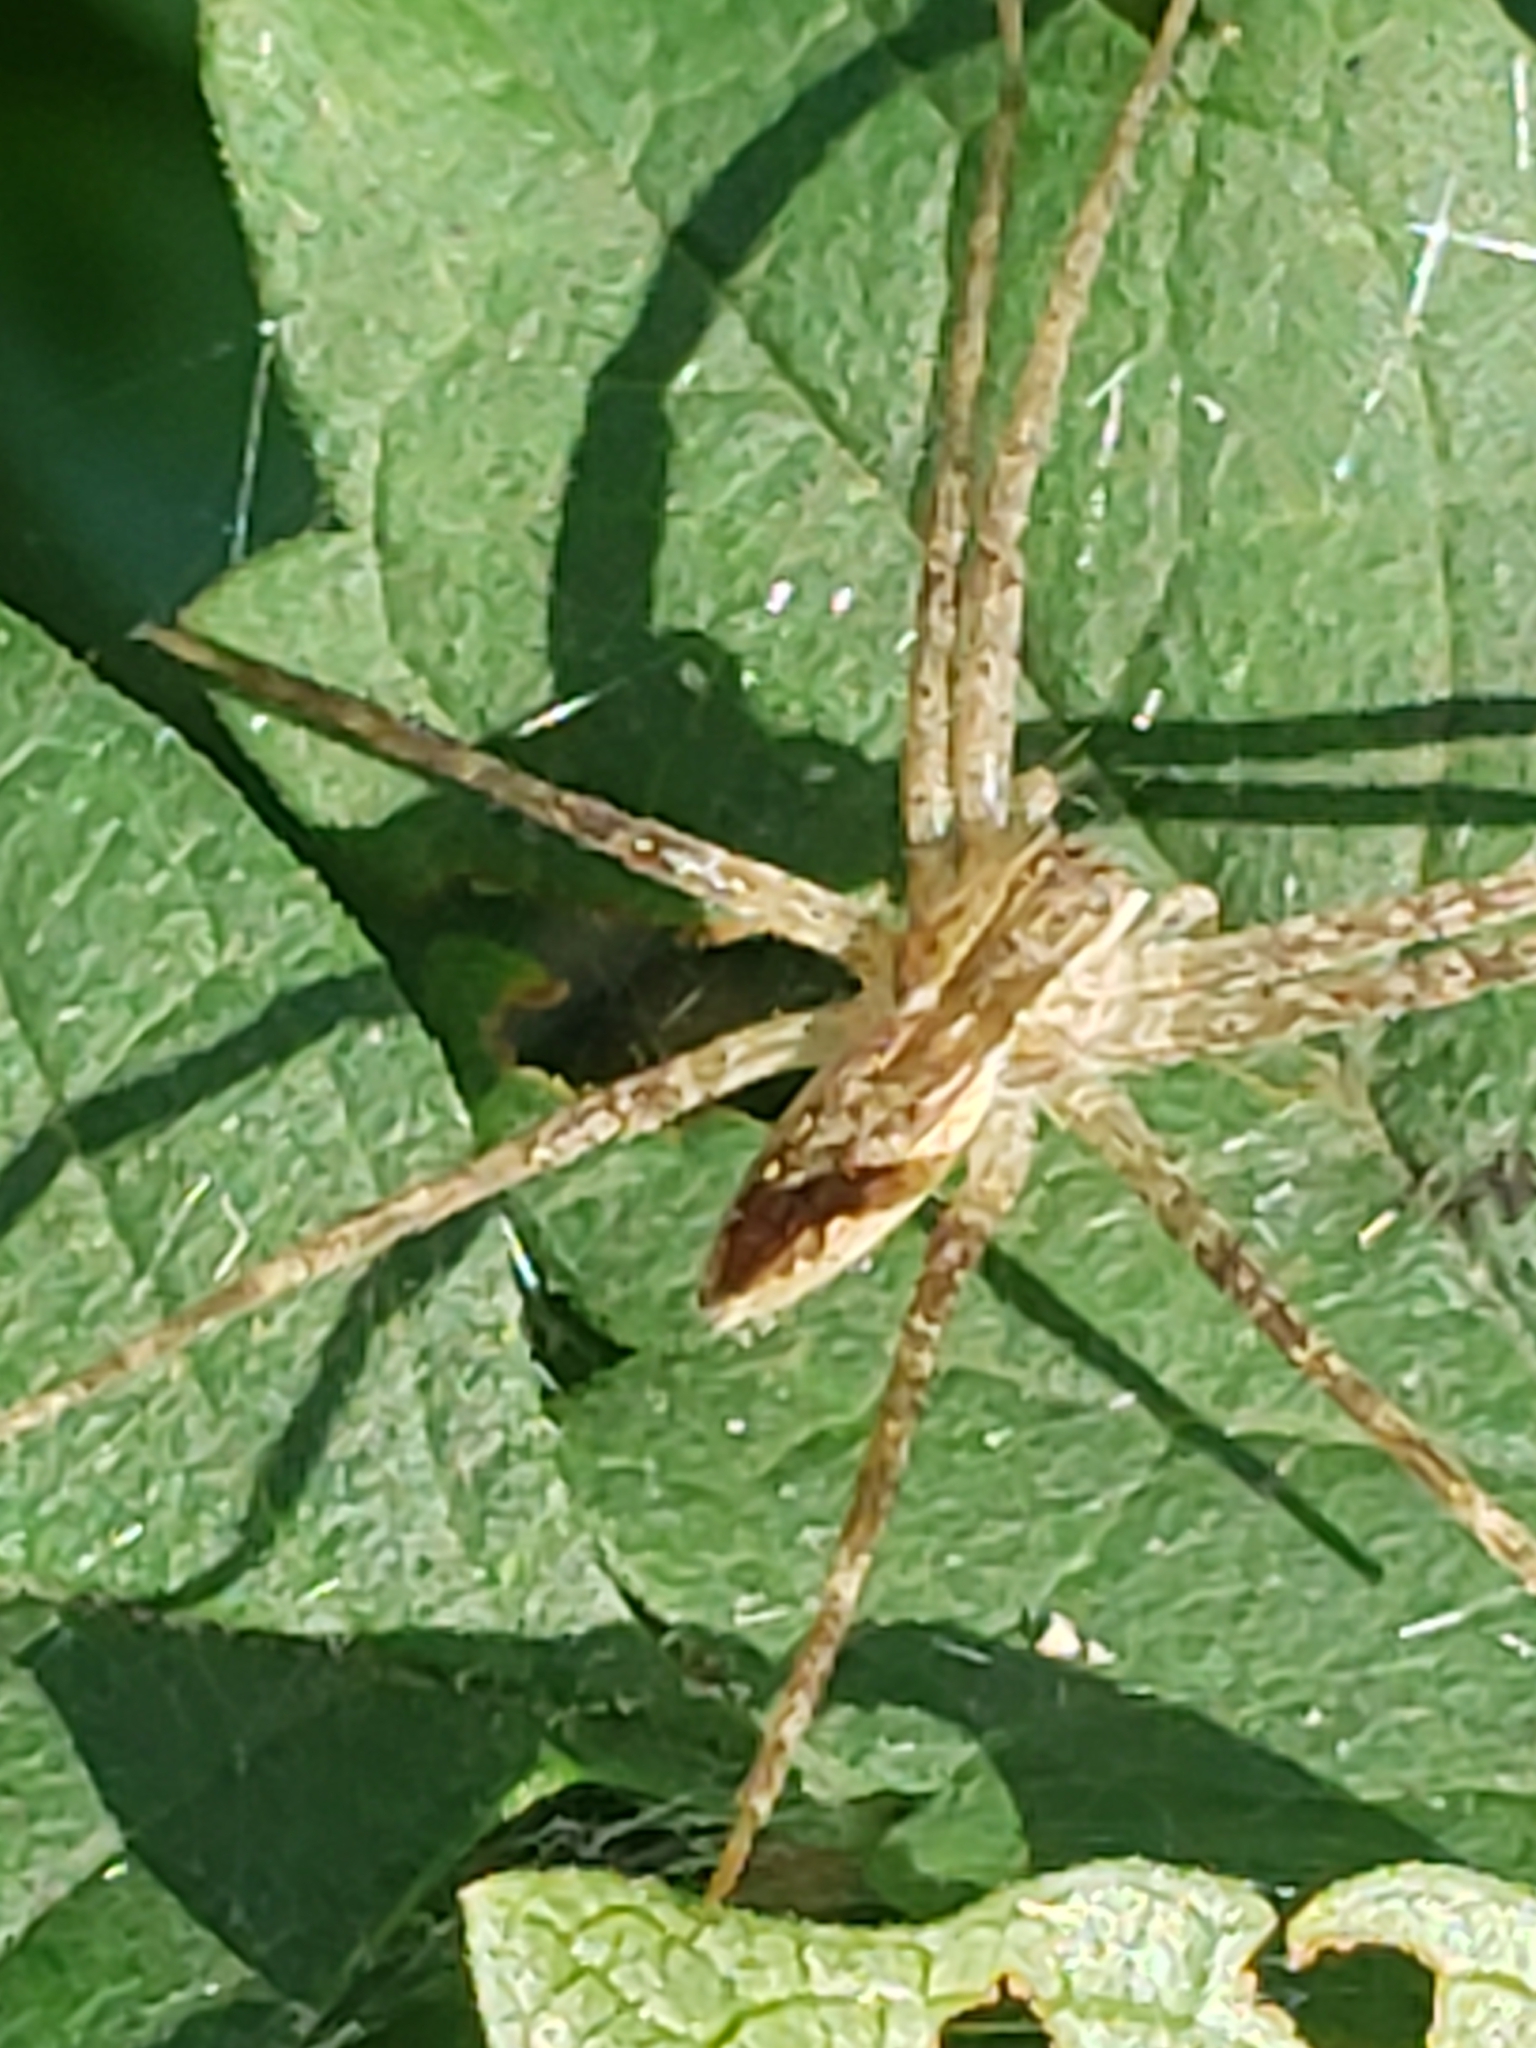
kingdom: Animalia
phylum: Arthropoda
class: Arachnida
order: Araneae
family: Pisauridae
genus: Pisaurina
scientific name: Pisaurina mira
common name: American nursery web spider
